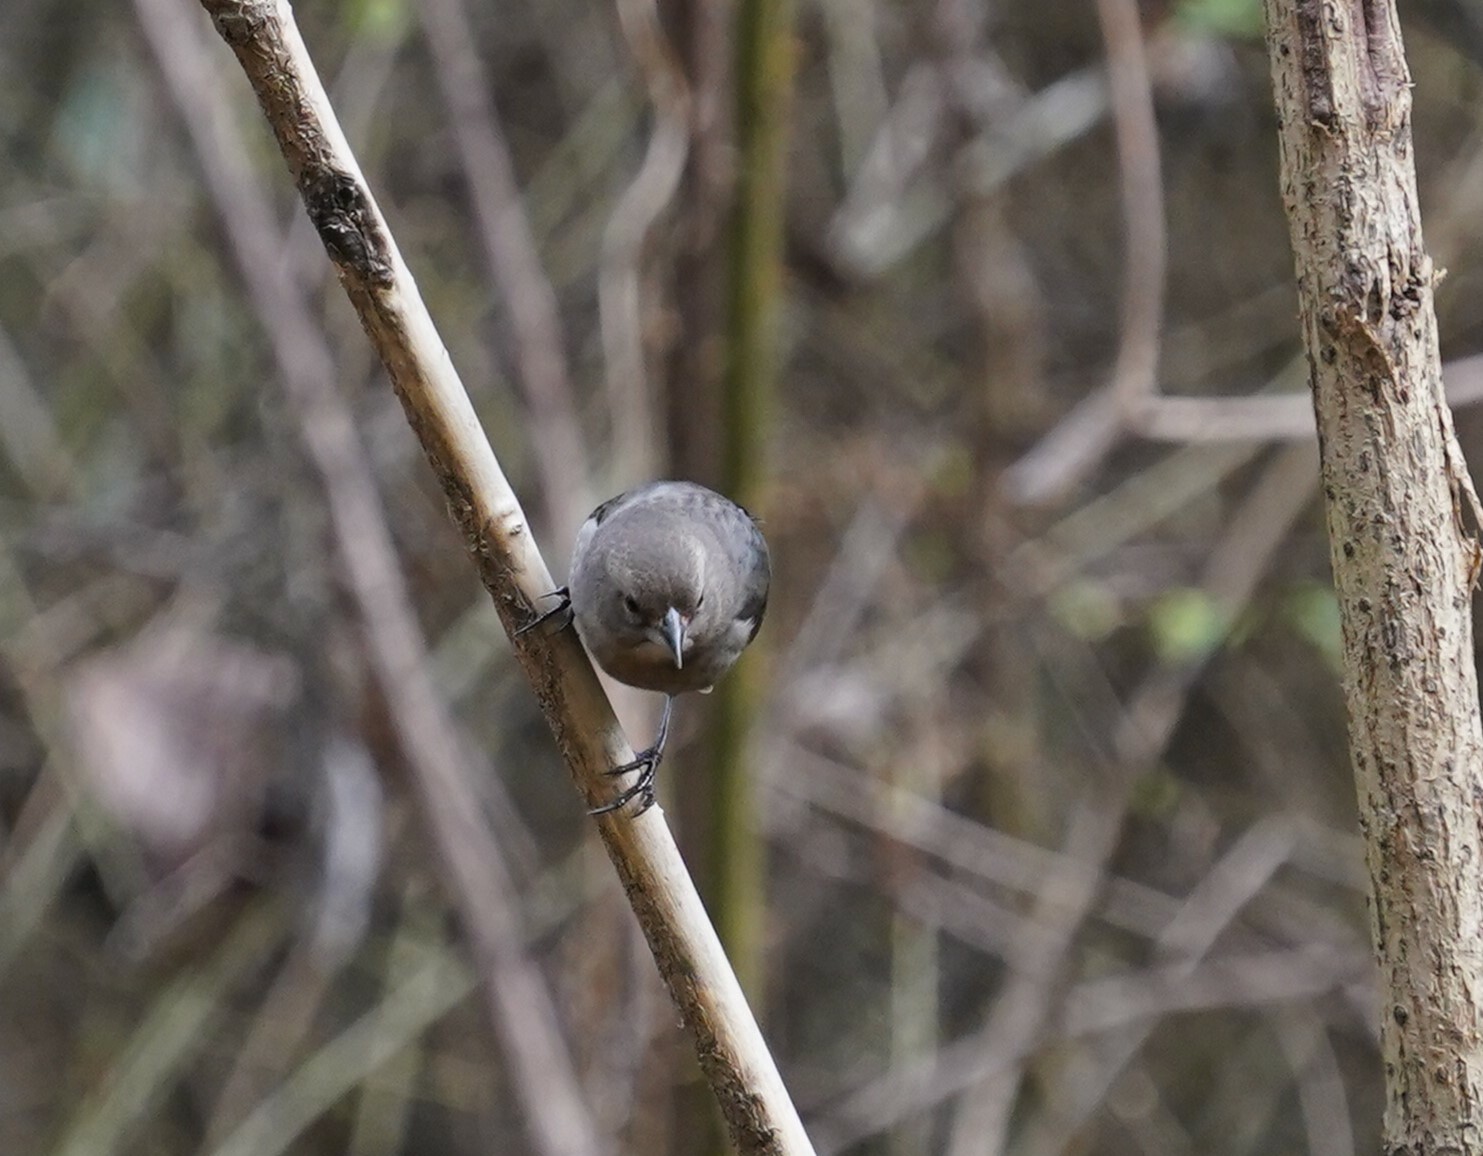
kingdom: Animalia
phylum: Chordata
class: Aves
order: Passeriformes
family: Icteridae
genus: Molothrus
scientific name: Molothrus ater
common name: Brown-headed cowbird
